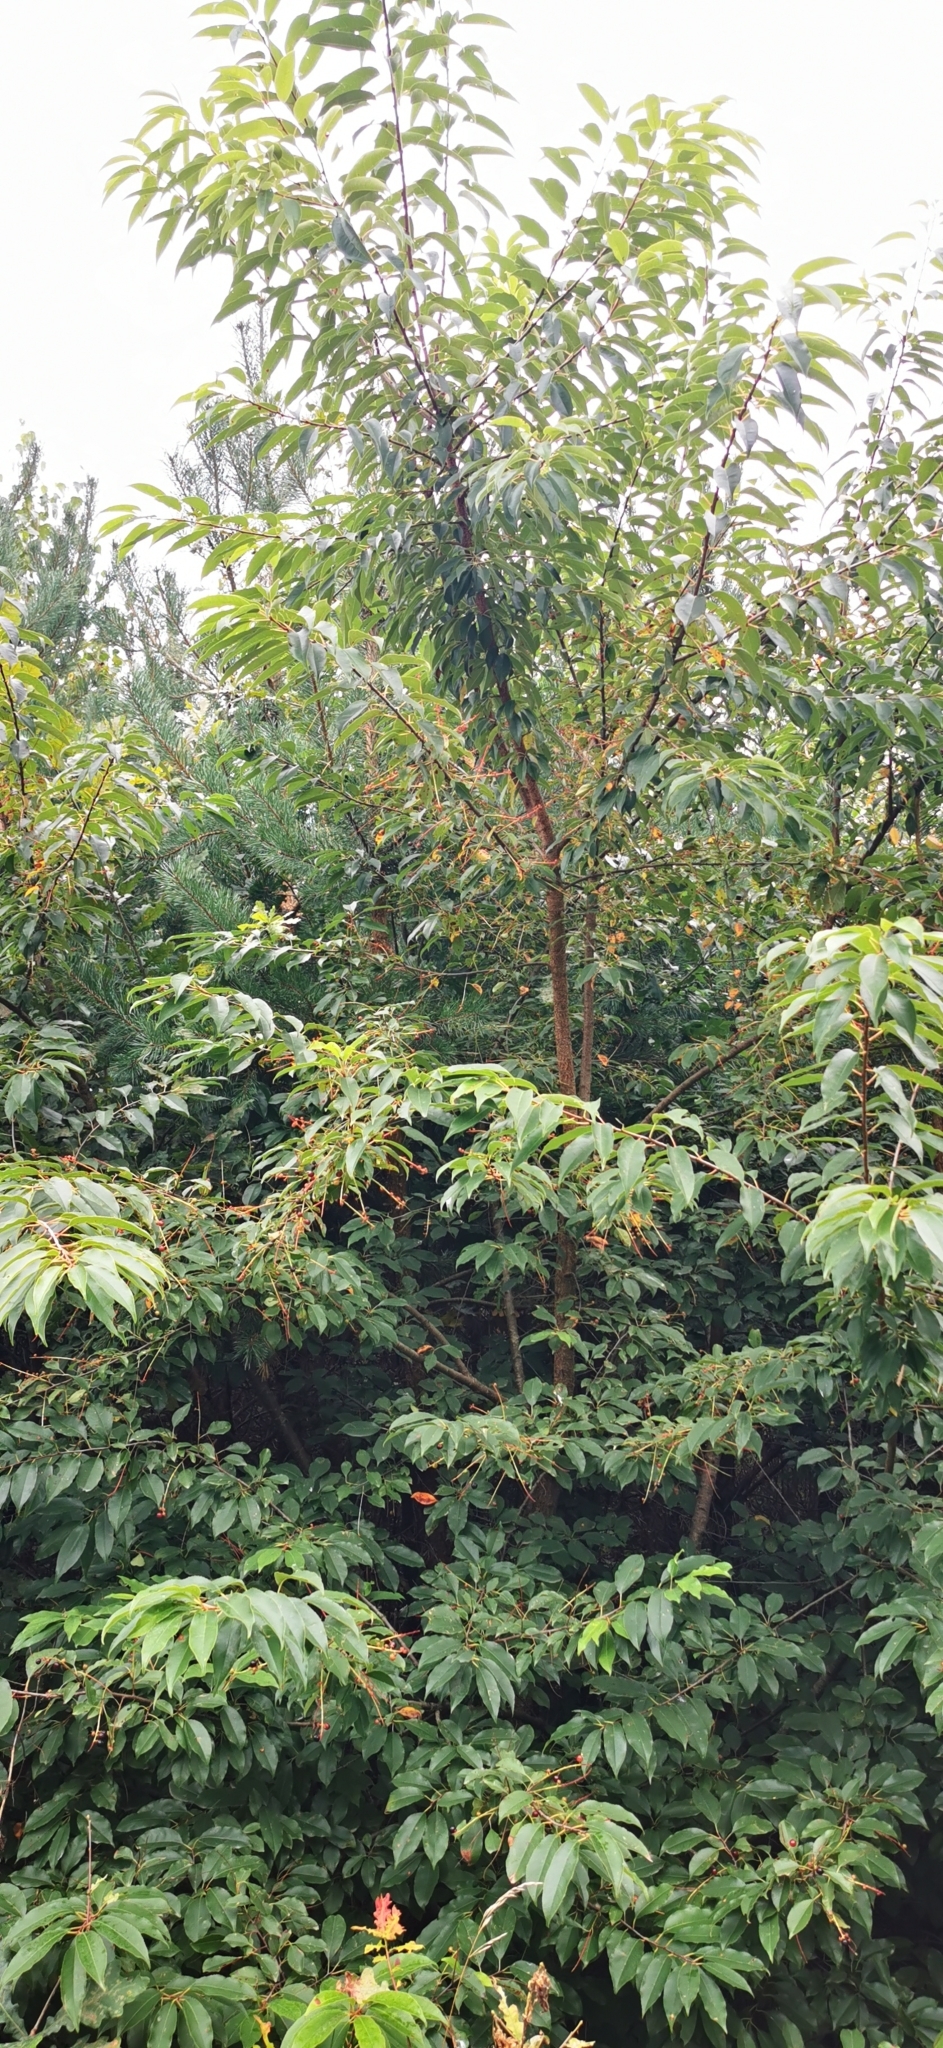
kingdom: Plantae
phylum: Tracheophyta
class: Magnoliopsida
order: Rosales
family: Rosaceae
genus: Prunus
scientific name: Prunus serotina
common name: Black cherry
